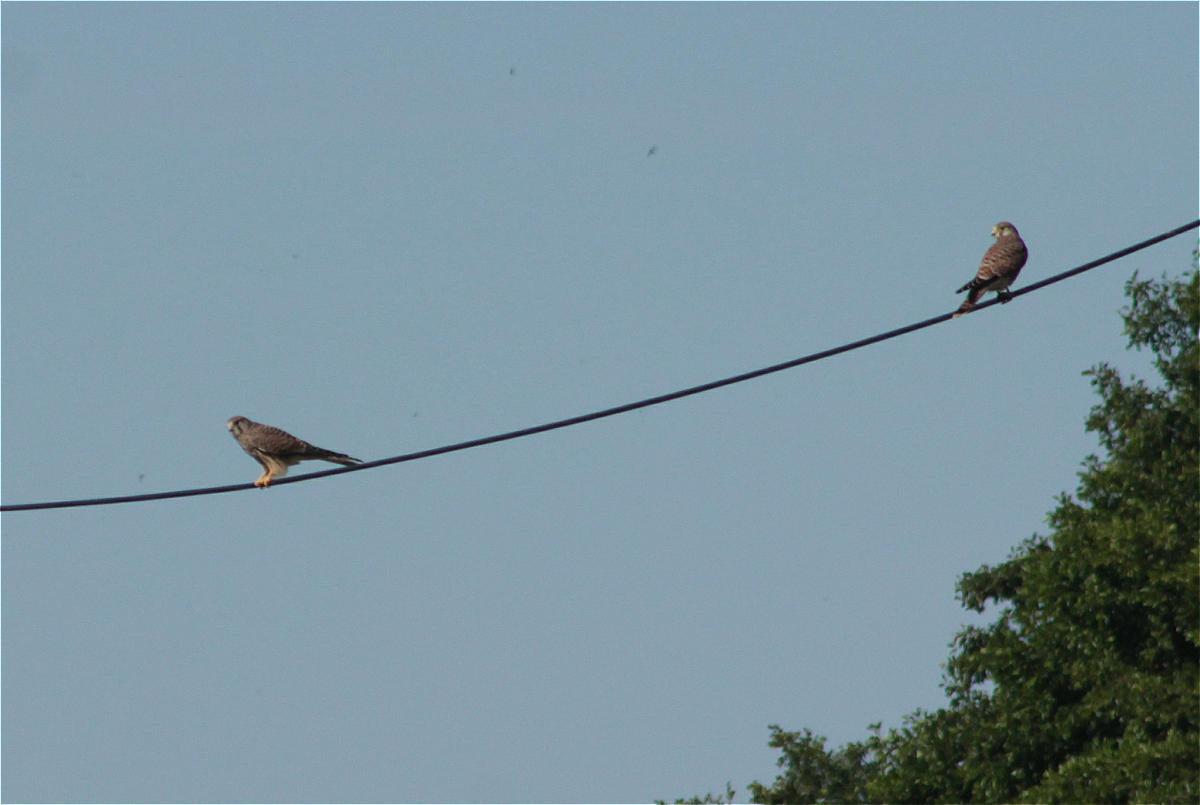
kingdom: Animalia
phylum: Chordata
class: Aves
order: Falconiformes
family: Falconidae
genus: Falco
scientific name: Falco tinnunculus
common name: Common kestrel
